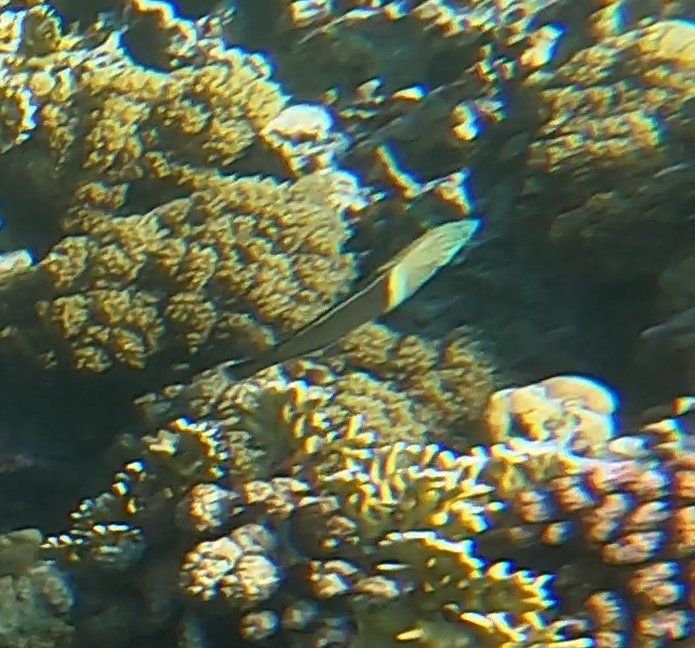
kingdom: Animalia
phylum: Chordata
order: Perciformes
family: Labridae
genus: Coris
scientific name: Coris aygula
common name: Clown coris
